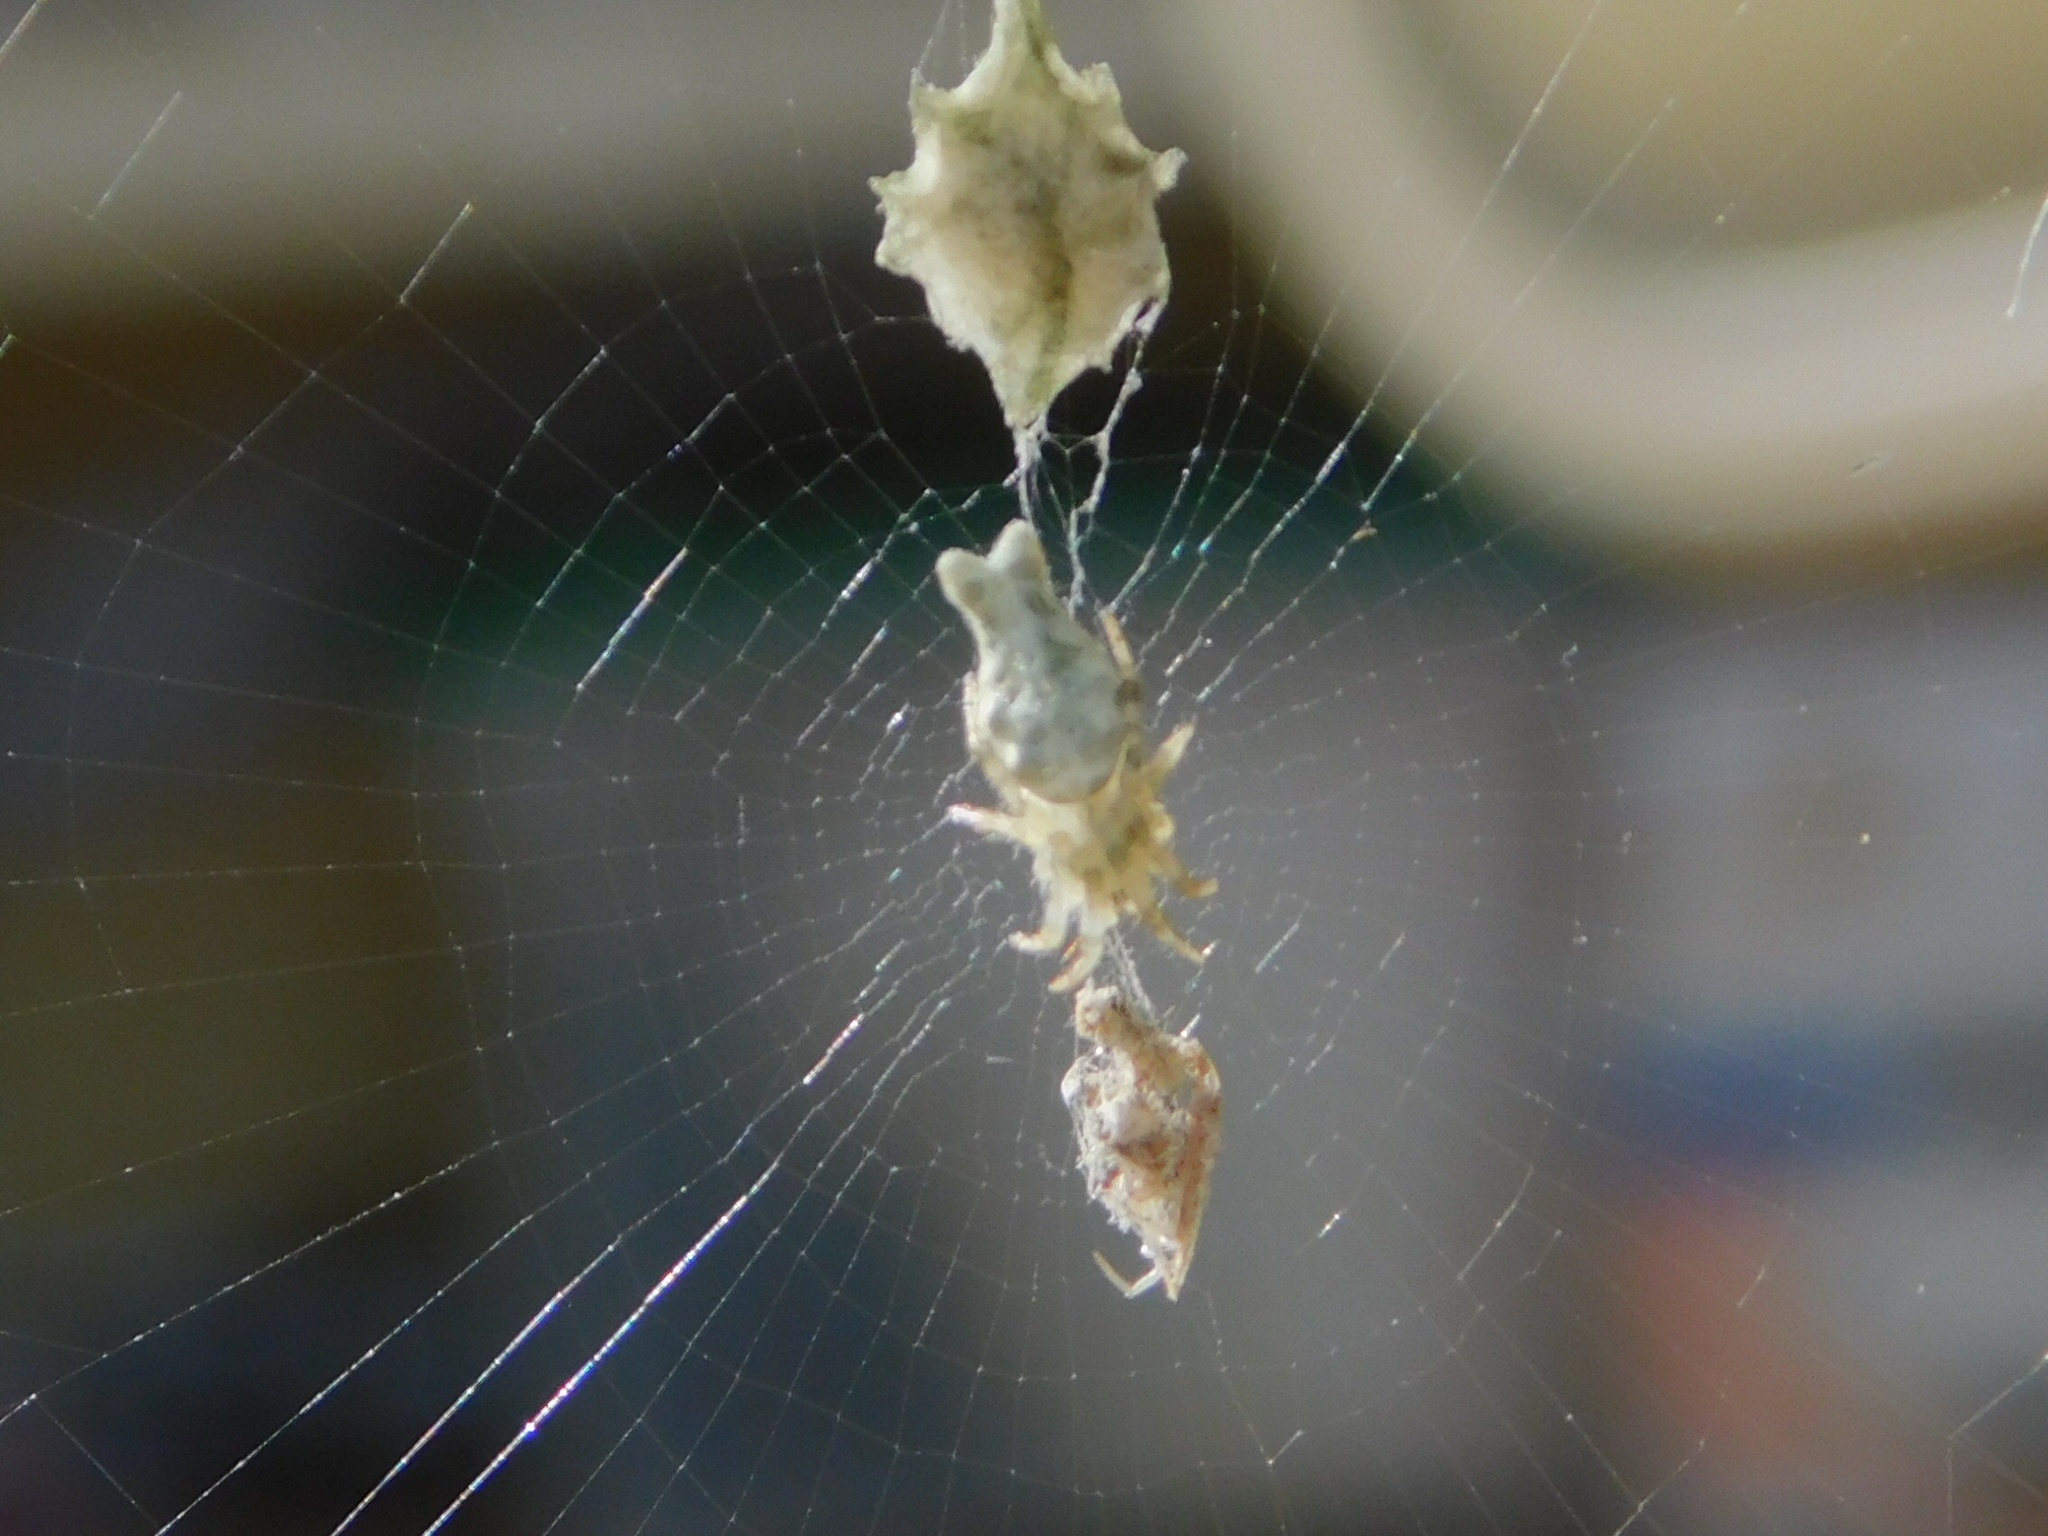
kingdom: Animalia
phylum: Arthropoda
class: Arachnida
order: Araneae
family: Araneidae
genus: Allocyclosa
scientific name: Allocyclosa bifurca
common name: Orb weavers
